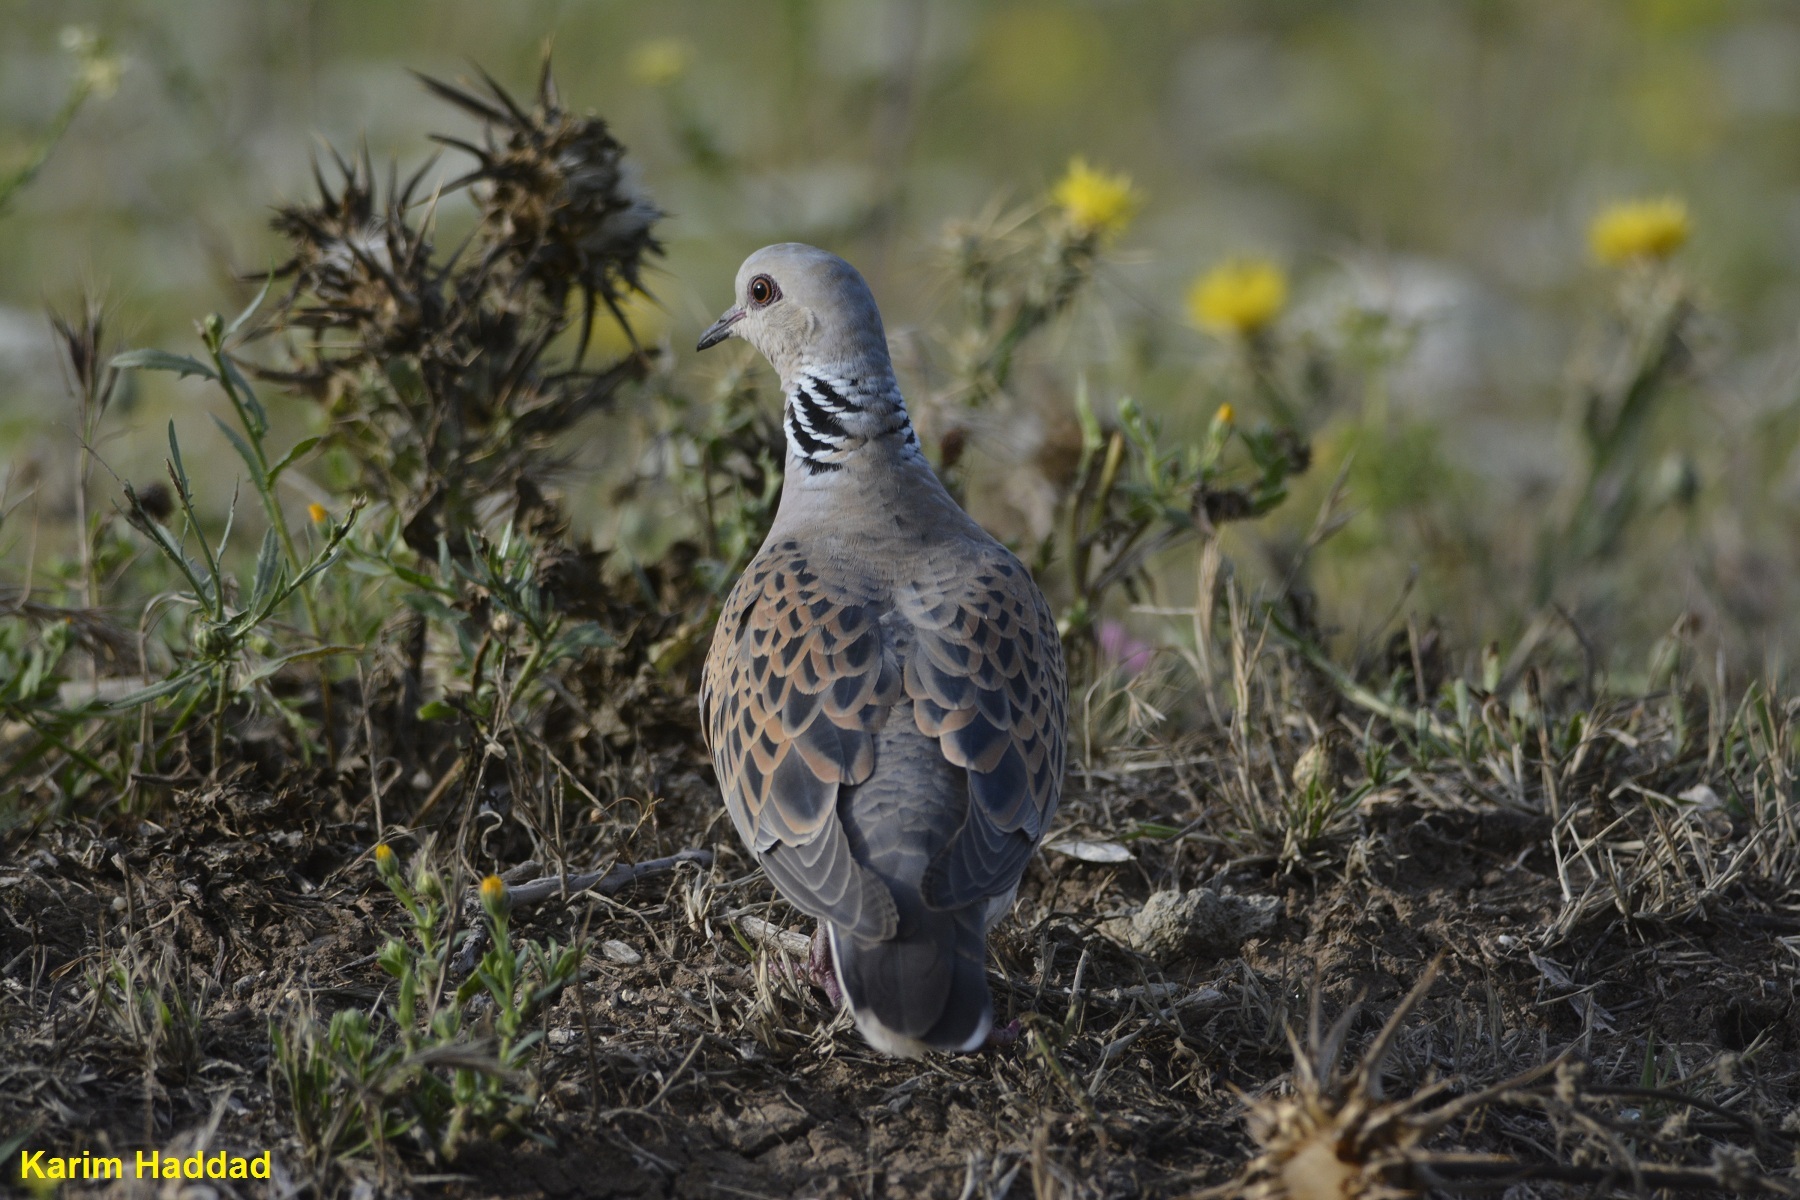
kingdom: Animalia
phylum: Chordata
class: Aves
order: Columbiformes
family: Columbidae
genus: Streptopelia
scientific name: Streptopelia turtur
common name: European turtle dove
